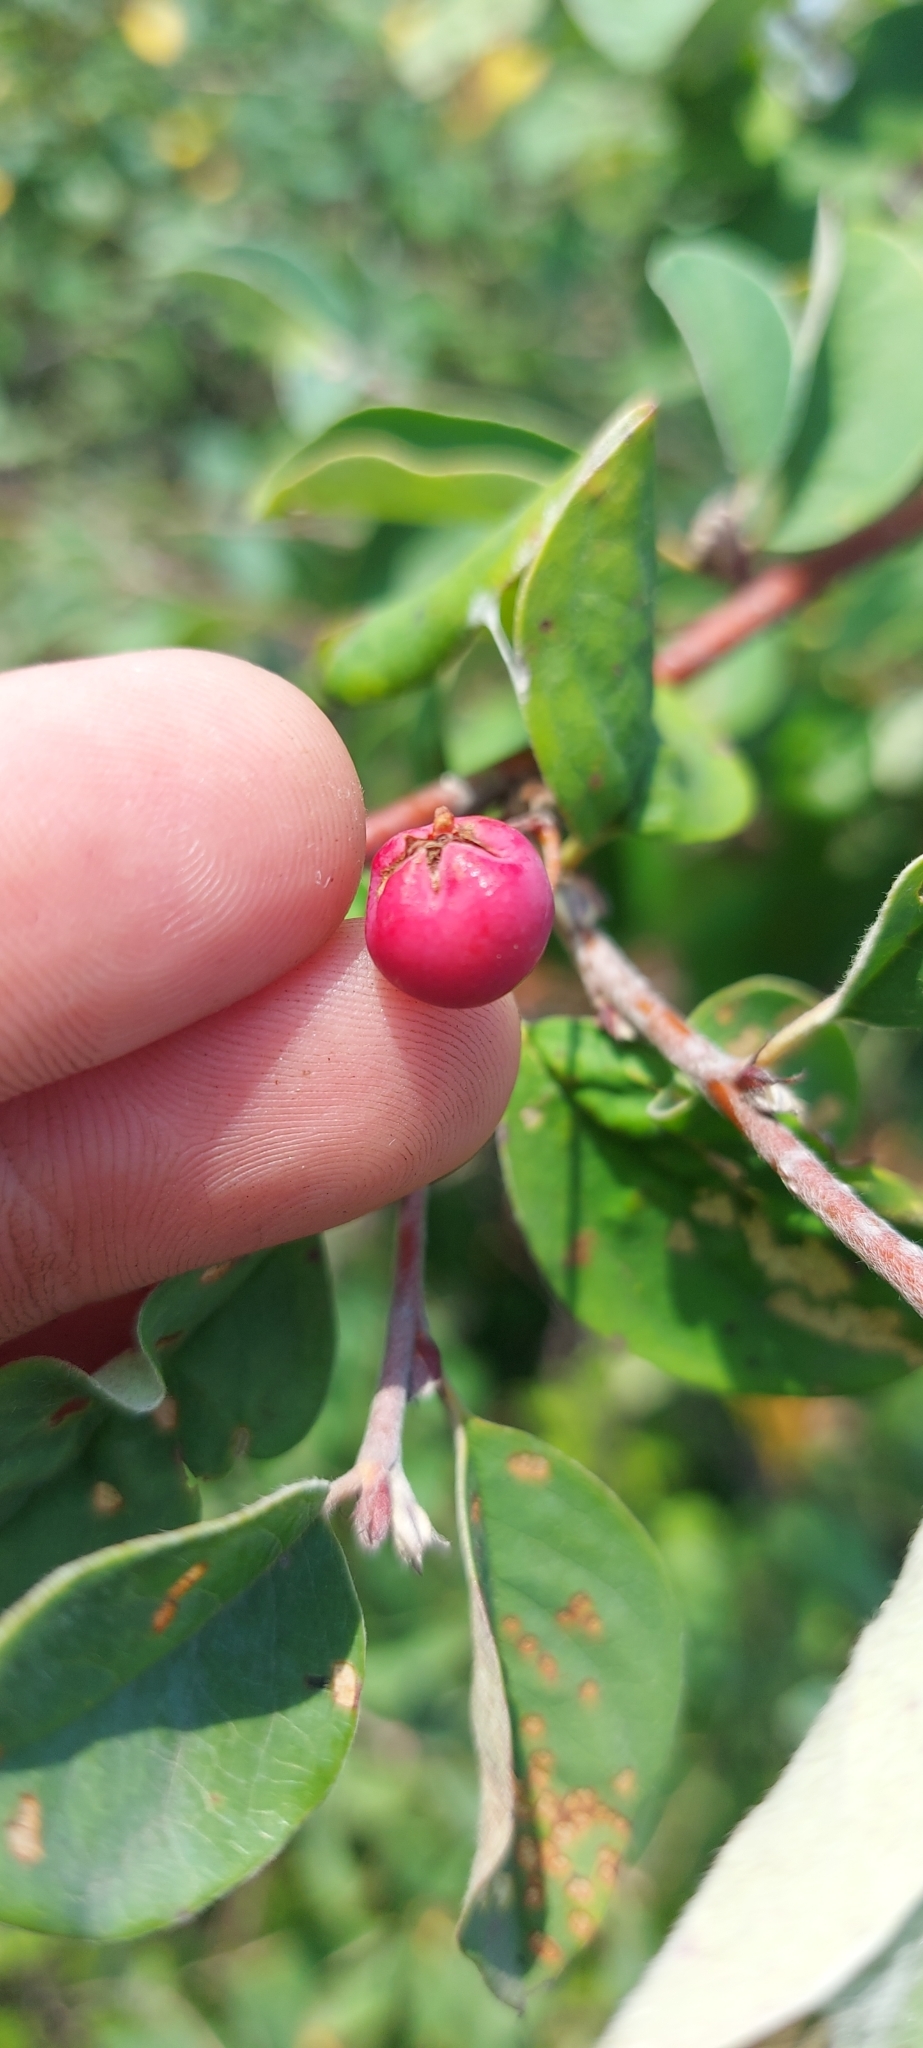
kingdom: Plantae
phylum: Tracheophyta
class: Magnoliopsida
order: Rosales
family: Rosaceae
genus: Cotoneaster
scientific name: Cotoneaster alaunicus
